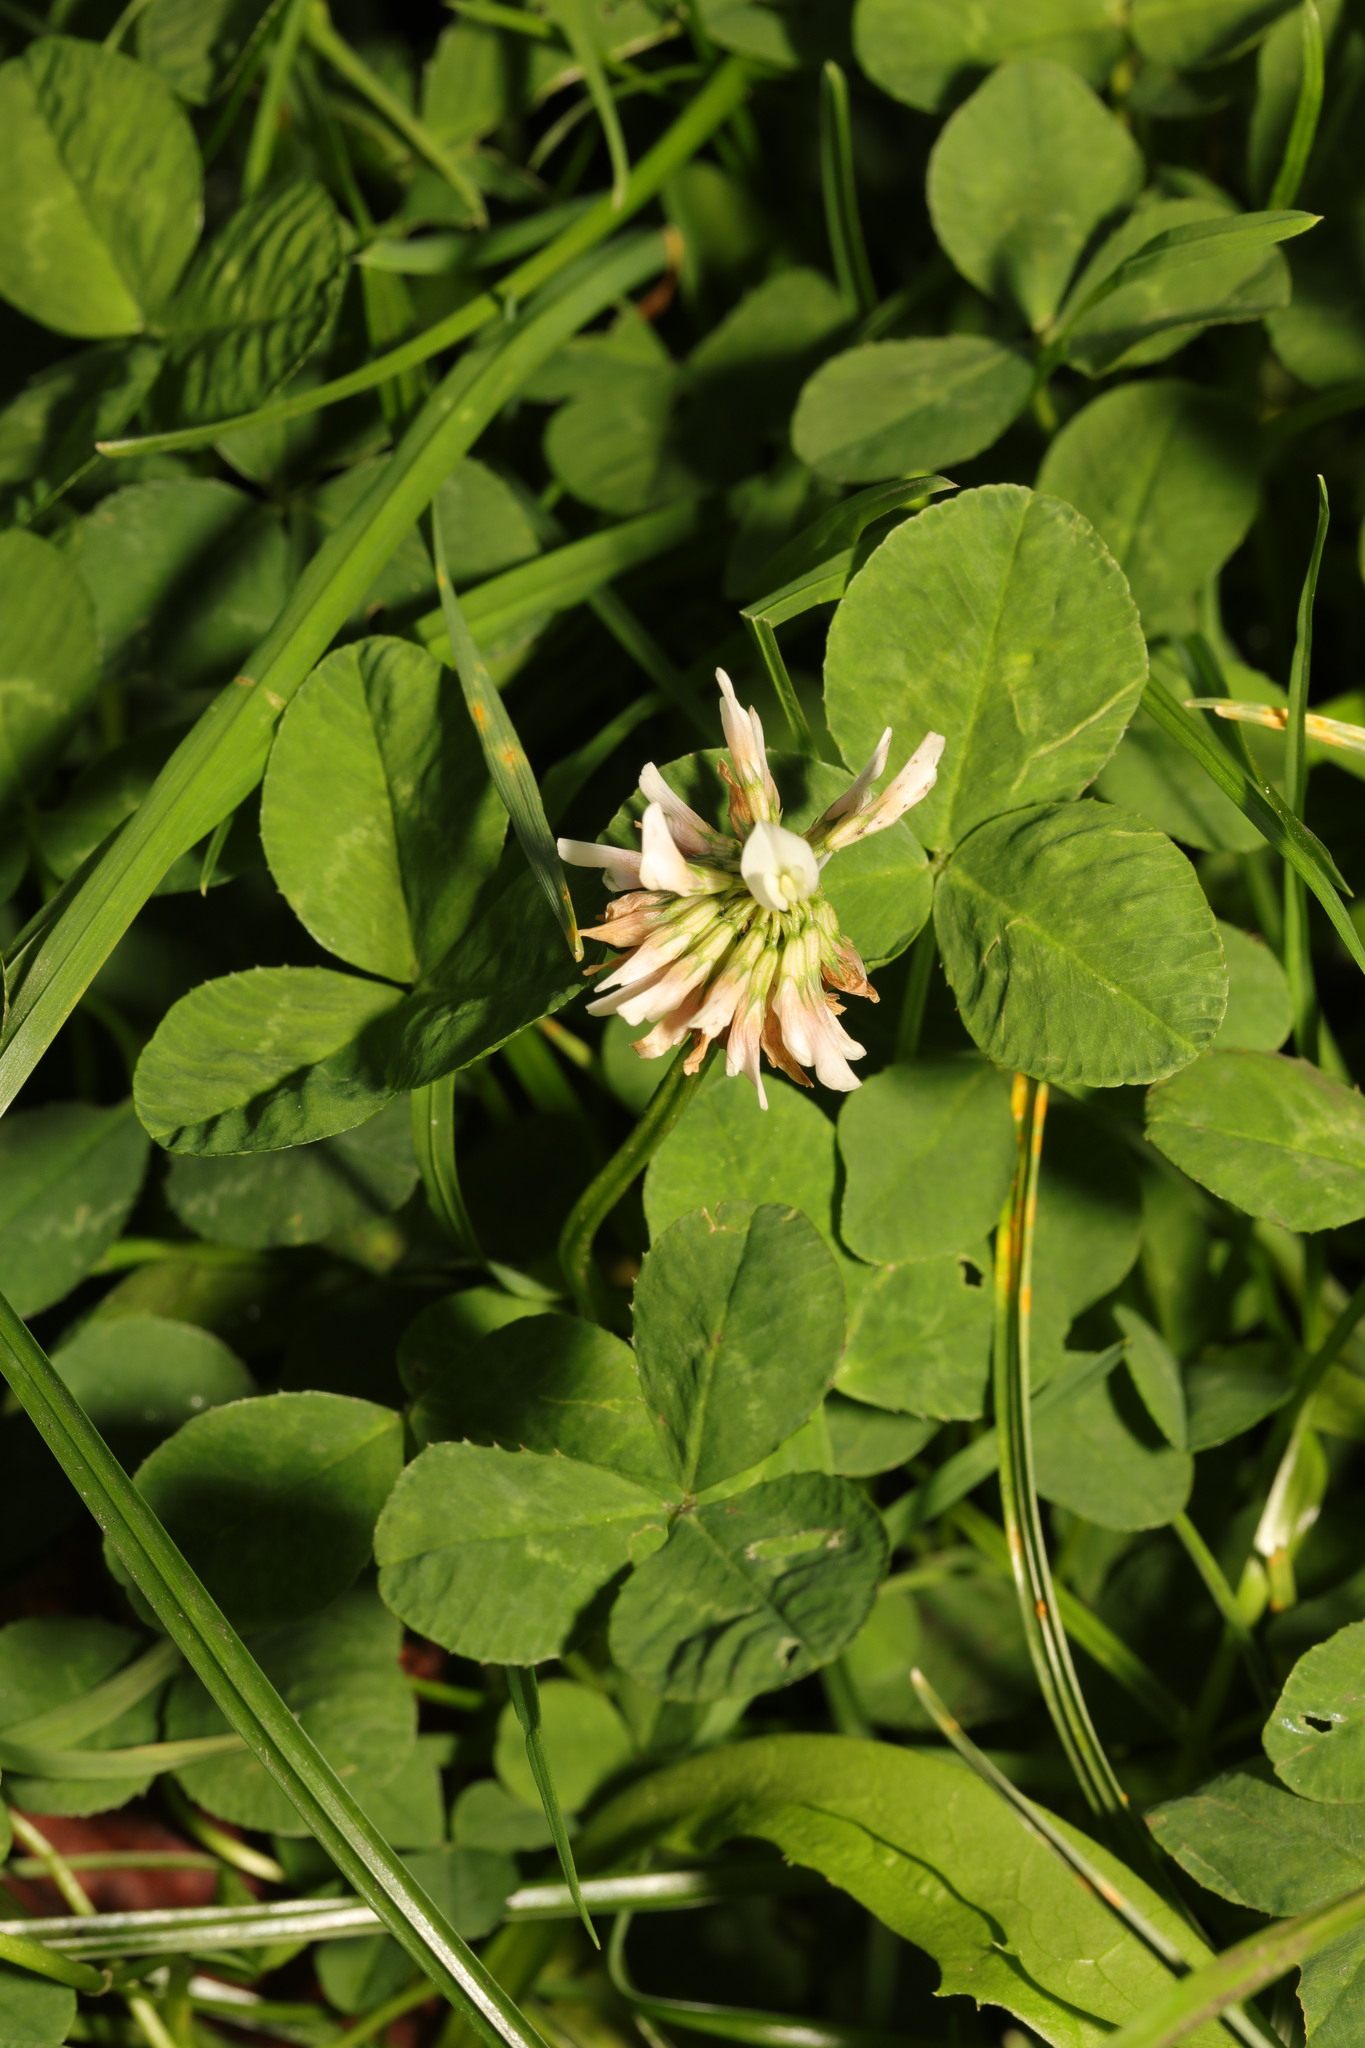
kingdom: Plantae
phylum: Tracheophyta
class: Magnoliopsida
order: Fabales
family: Fabaceae
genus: Trifolium
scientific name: Trifolium repens
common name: White clover
